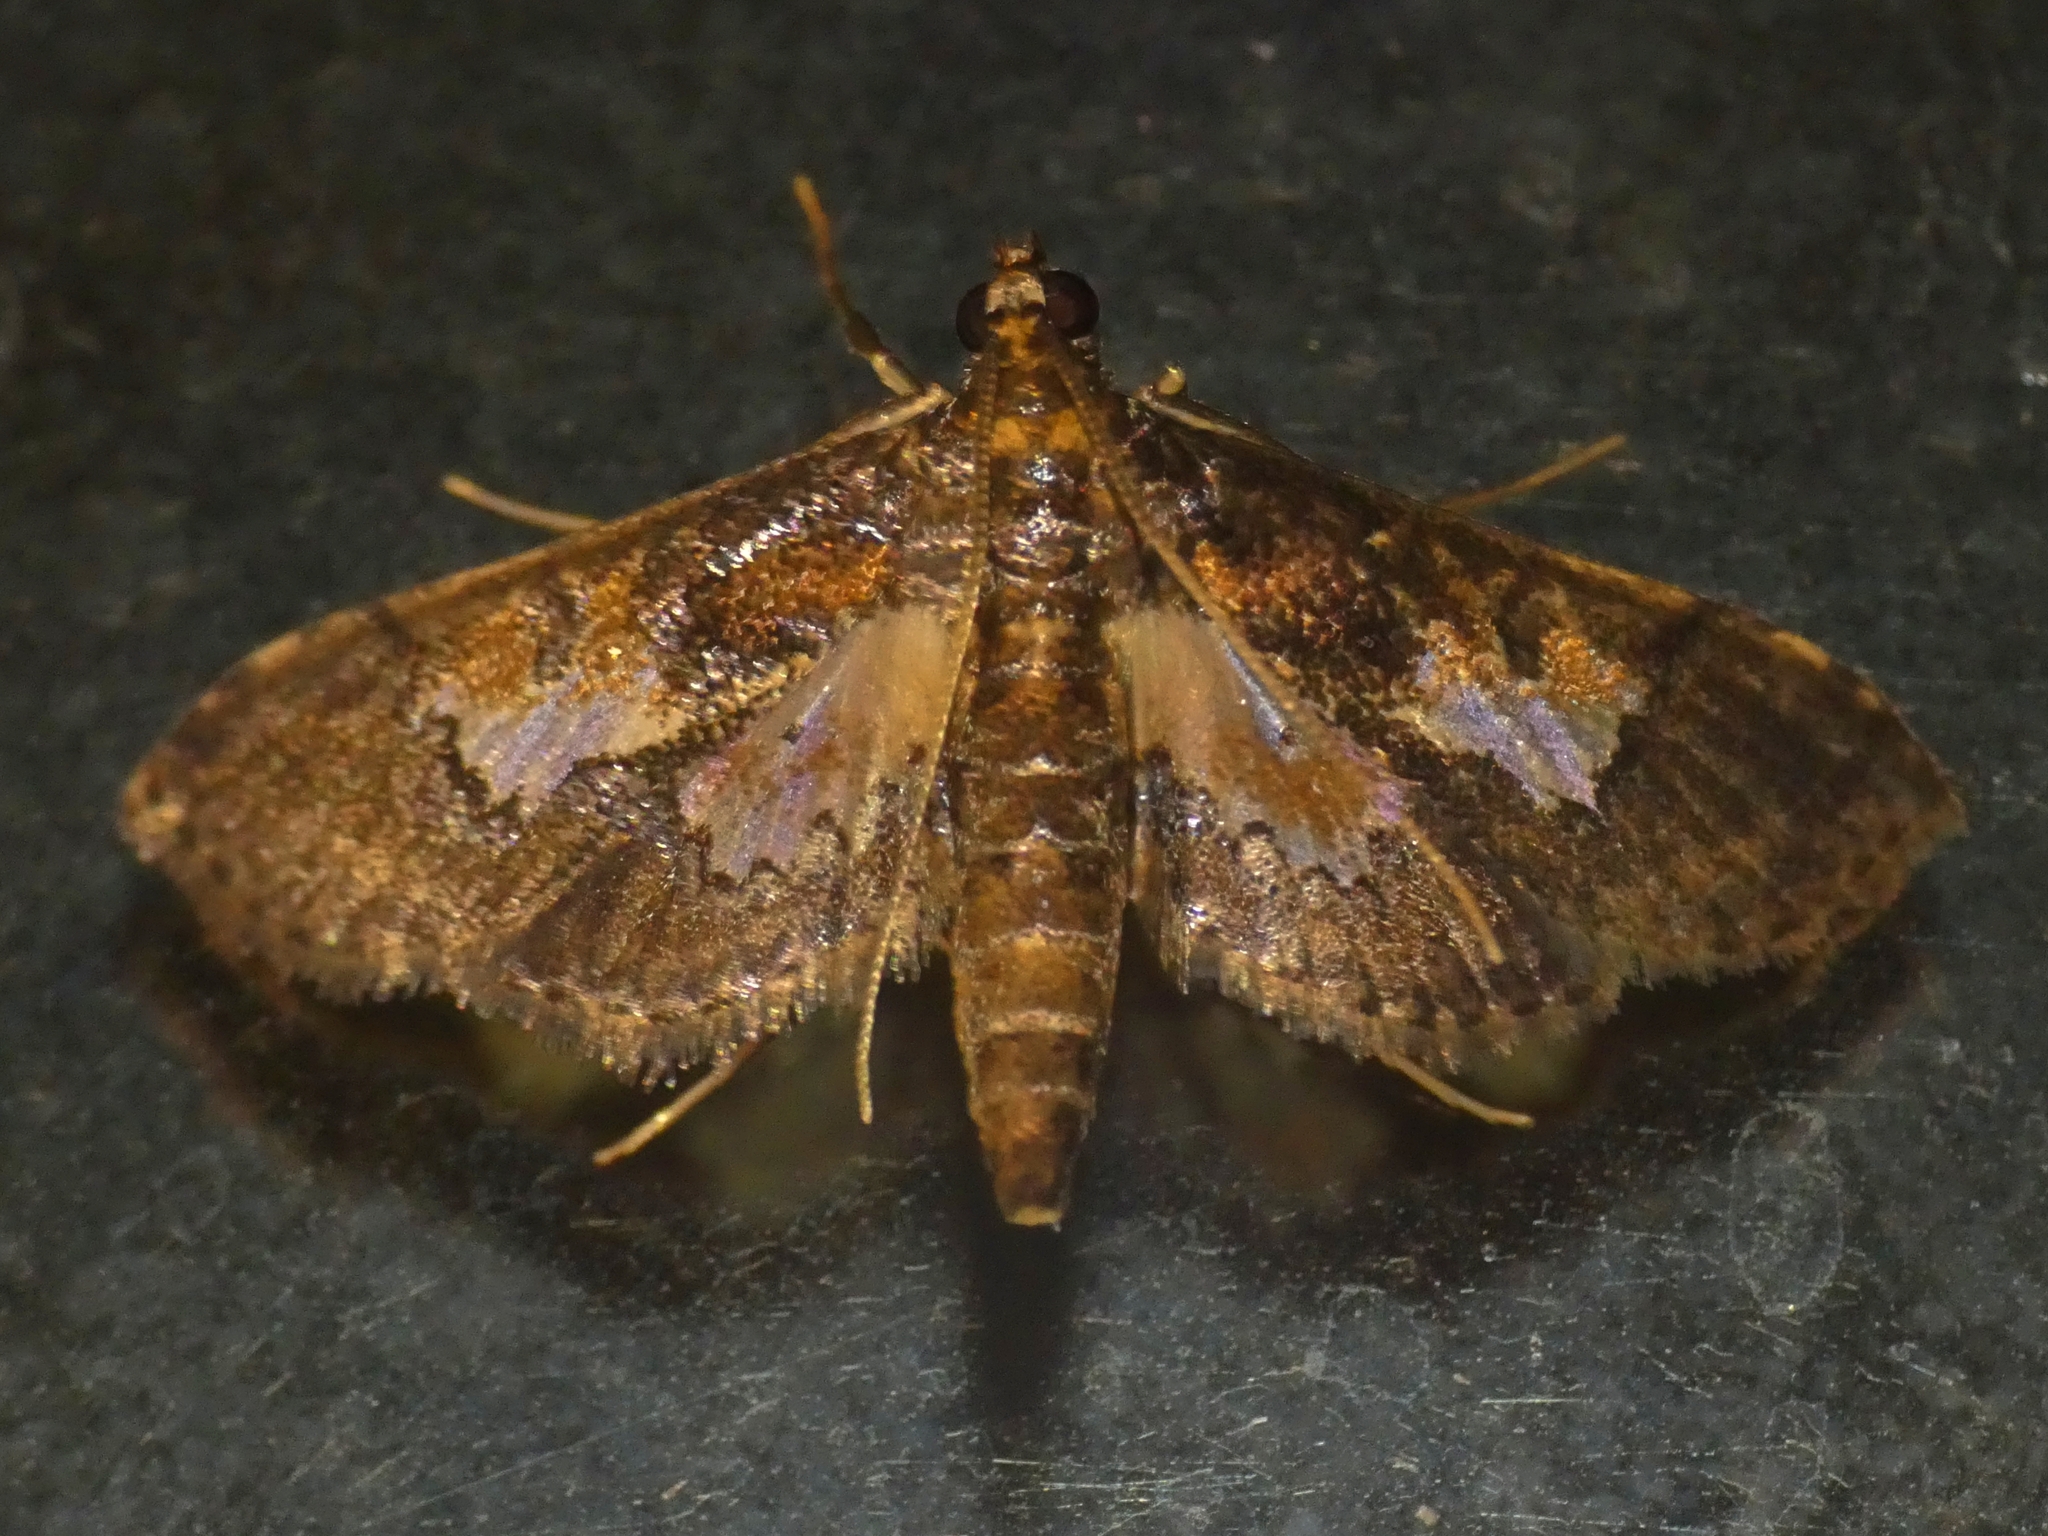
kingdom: Animalia
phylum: Arthropoda
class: Insecta
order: Lepidoptera
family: Crambidae
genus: Hydriris
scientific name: Hydriris ornatalis
